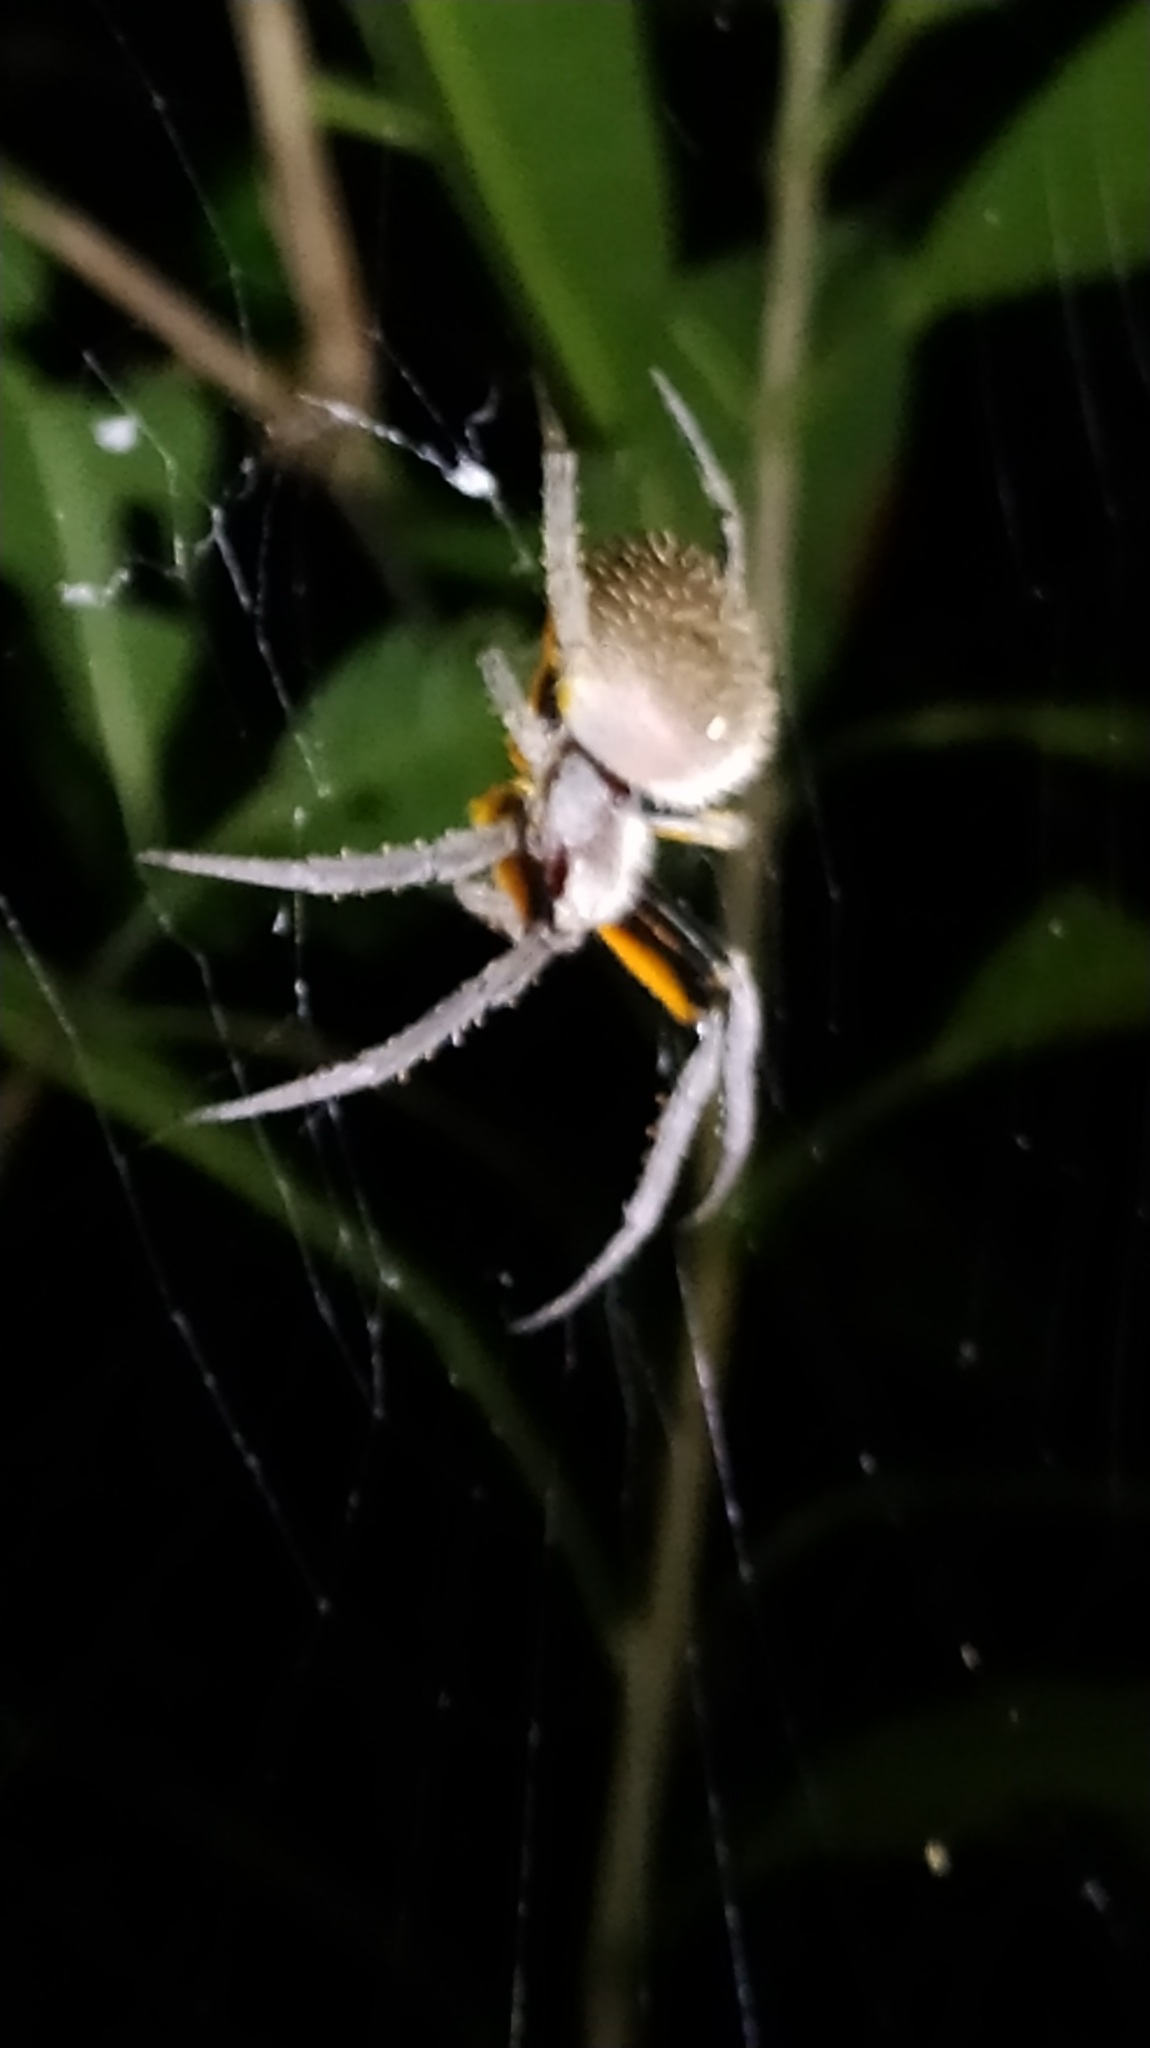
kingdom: Animalia
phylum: Arthropoda
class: Arachnida
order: Araneae
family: Araneidae
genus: Eriophora
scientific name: Eriophora fuliginea
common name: Orb weavers
